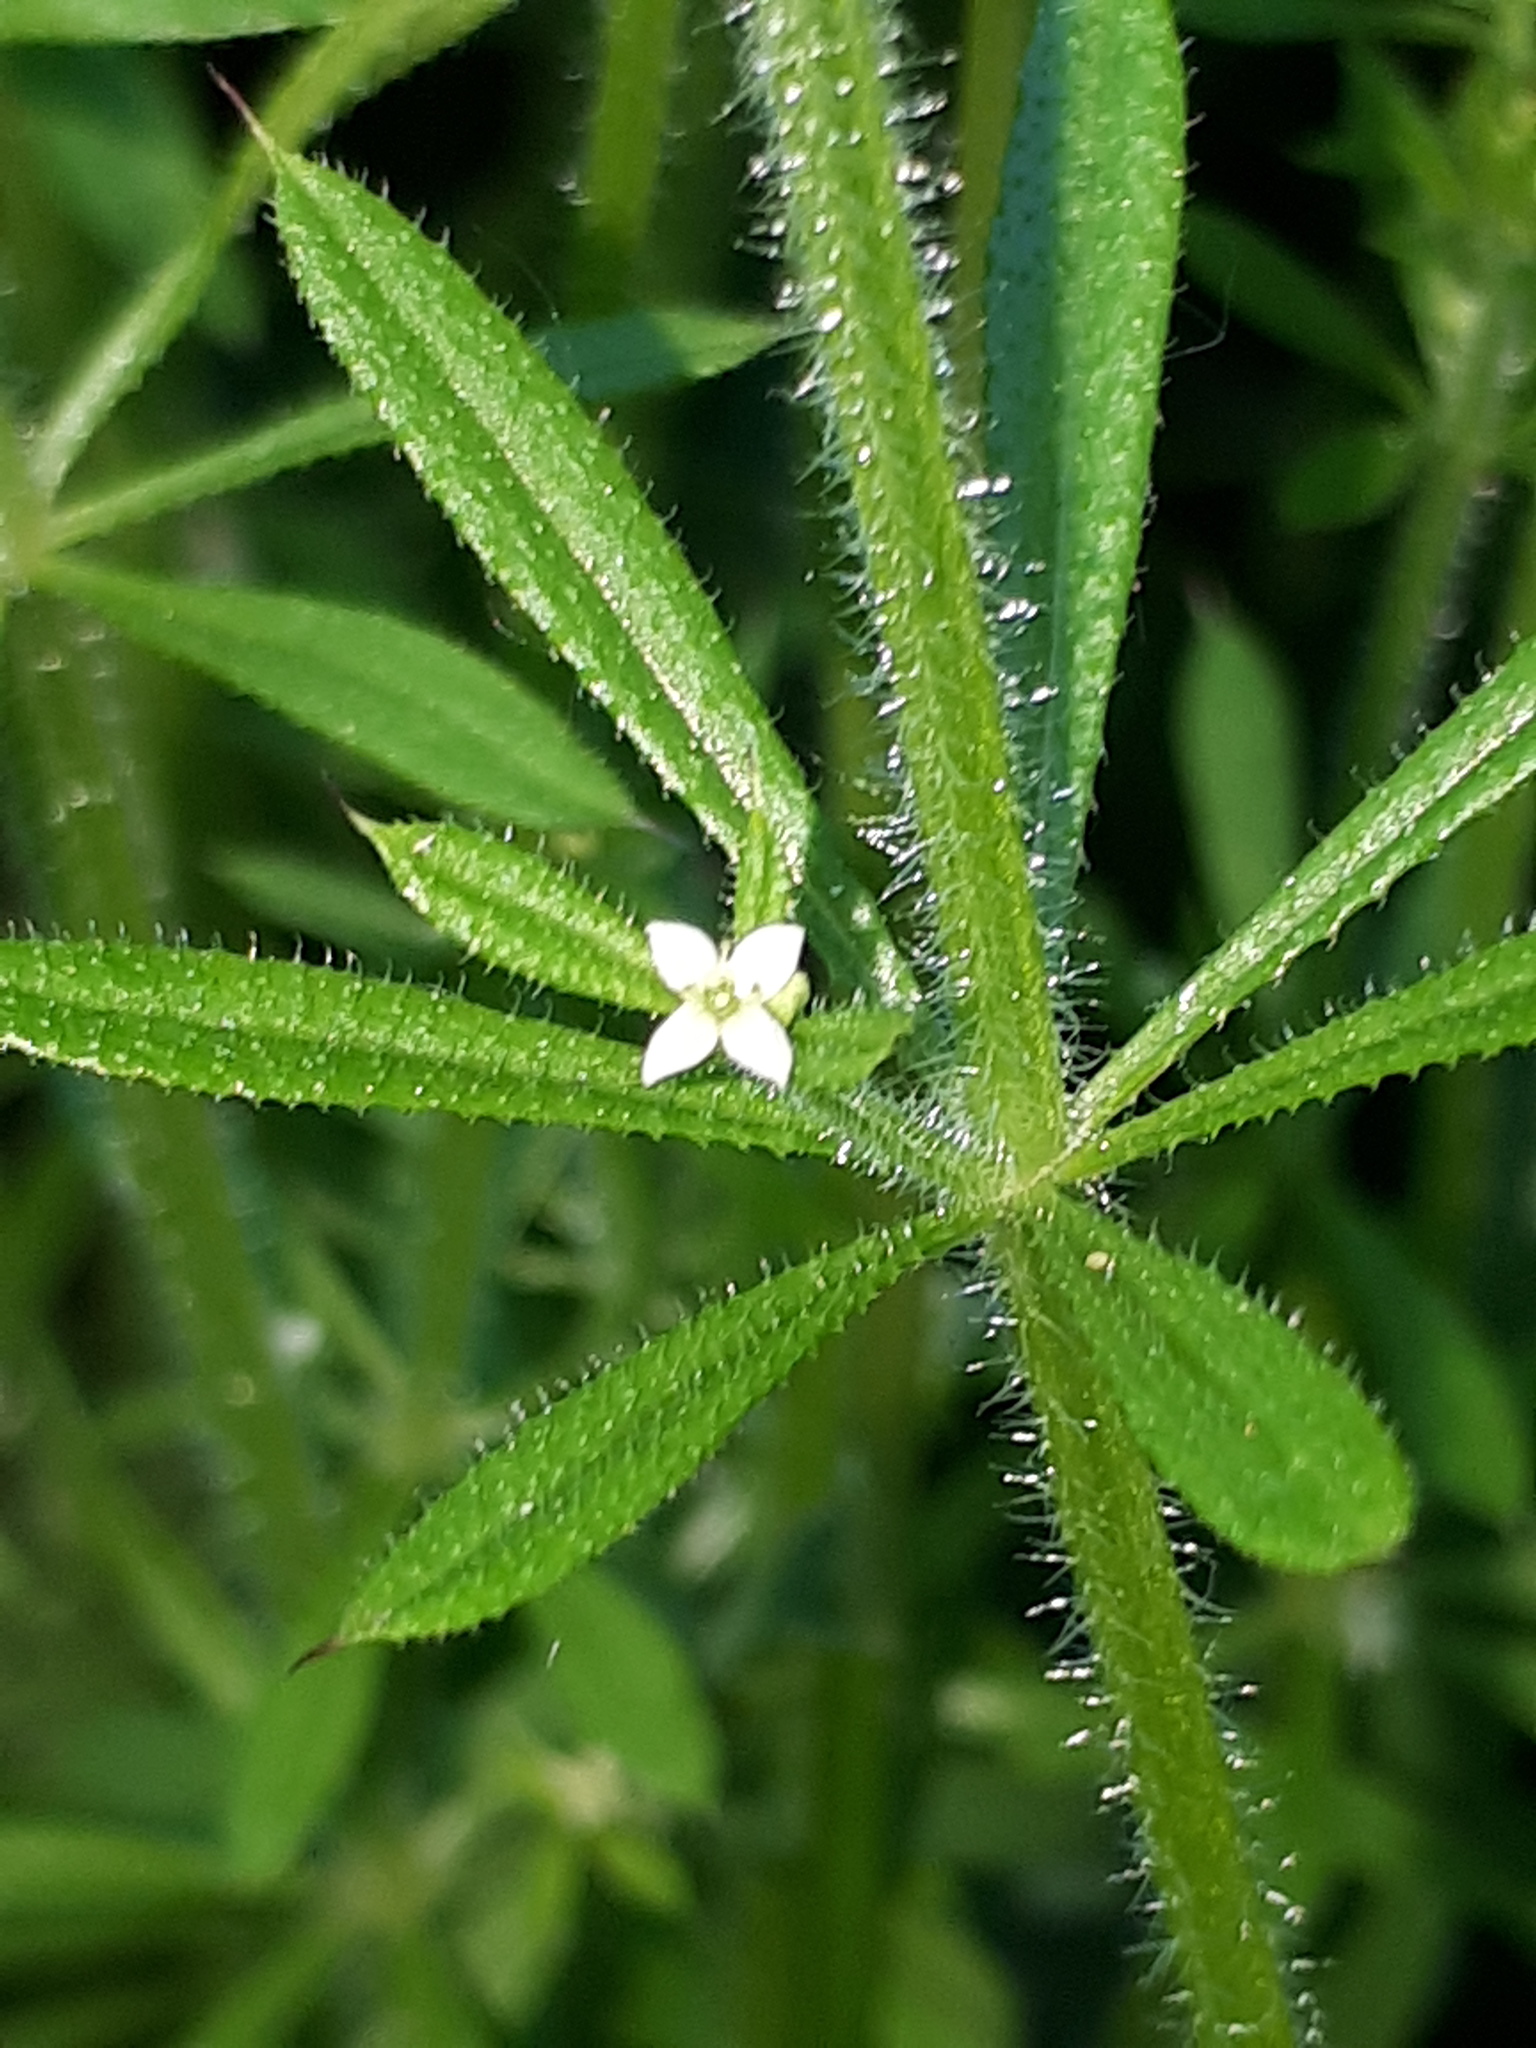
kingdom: Plantae
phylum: Tracheophyta
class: Magnoliopsida
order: Gentianales
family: Rubiaceae
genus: Galium
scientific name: Galium aparine
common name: Cleavers
